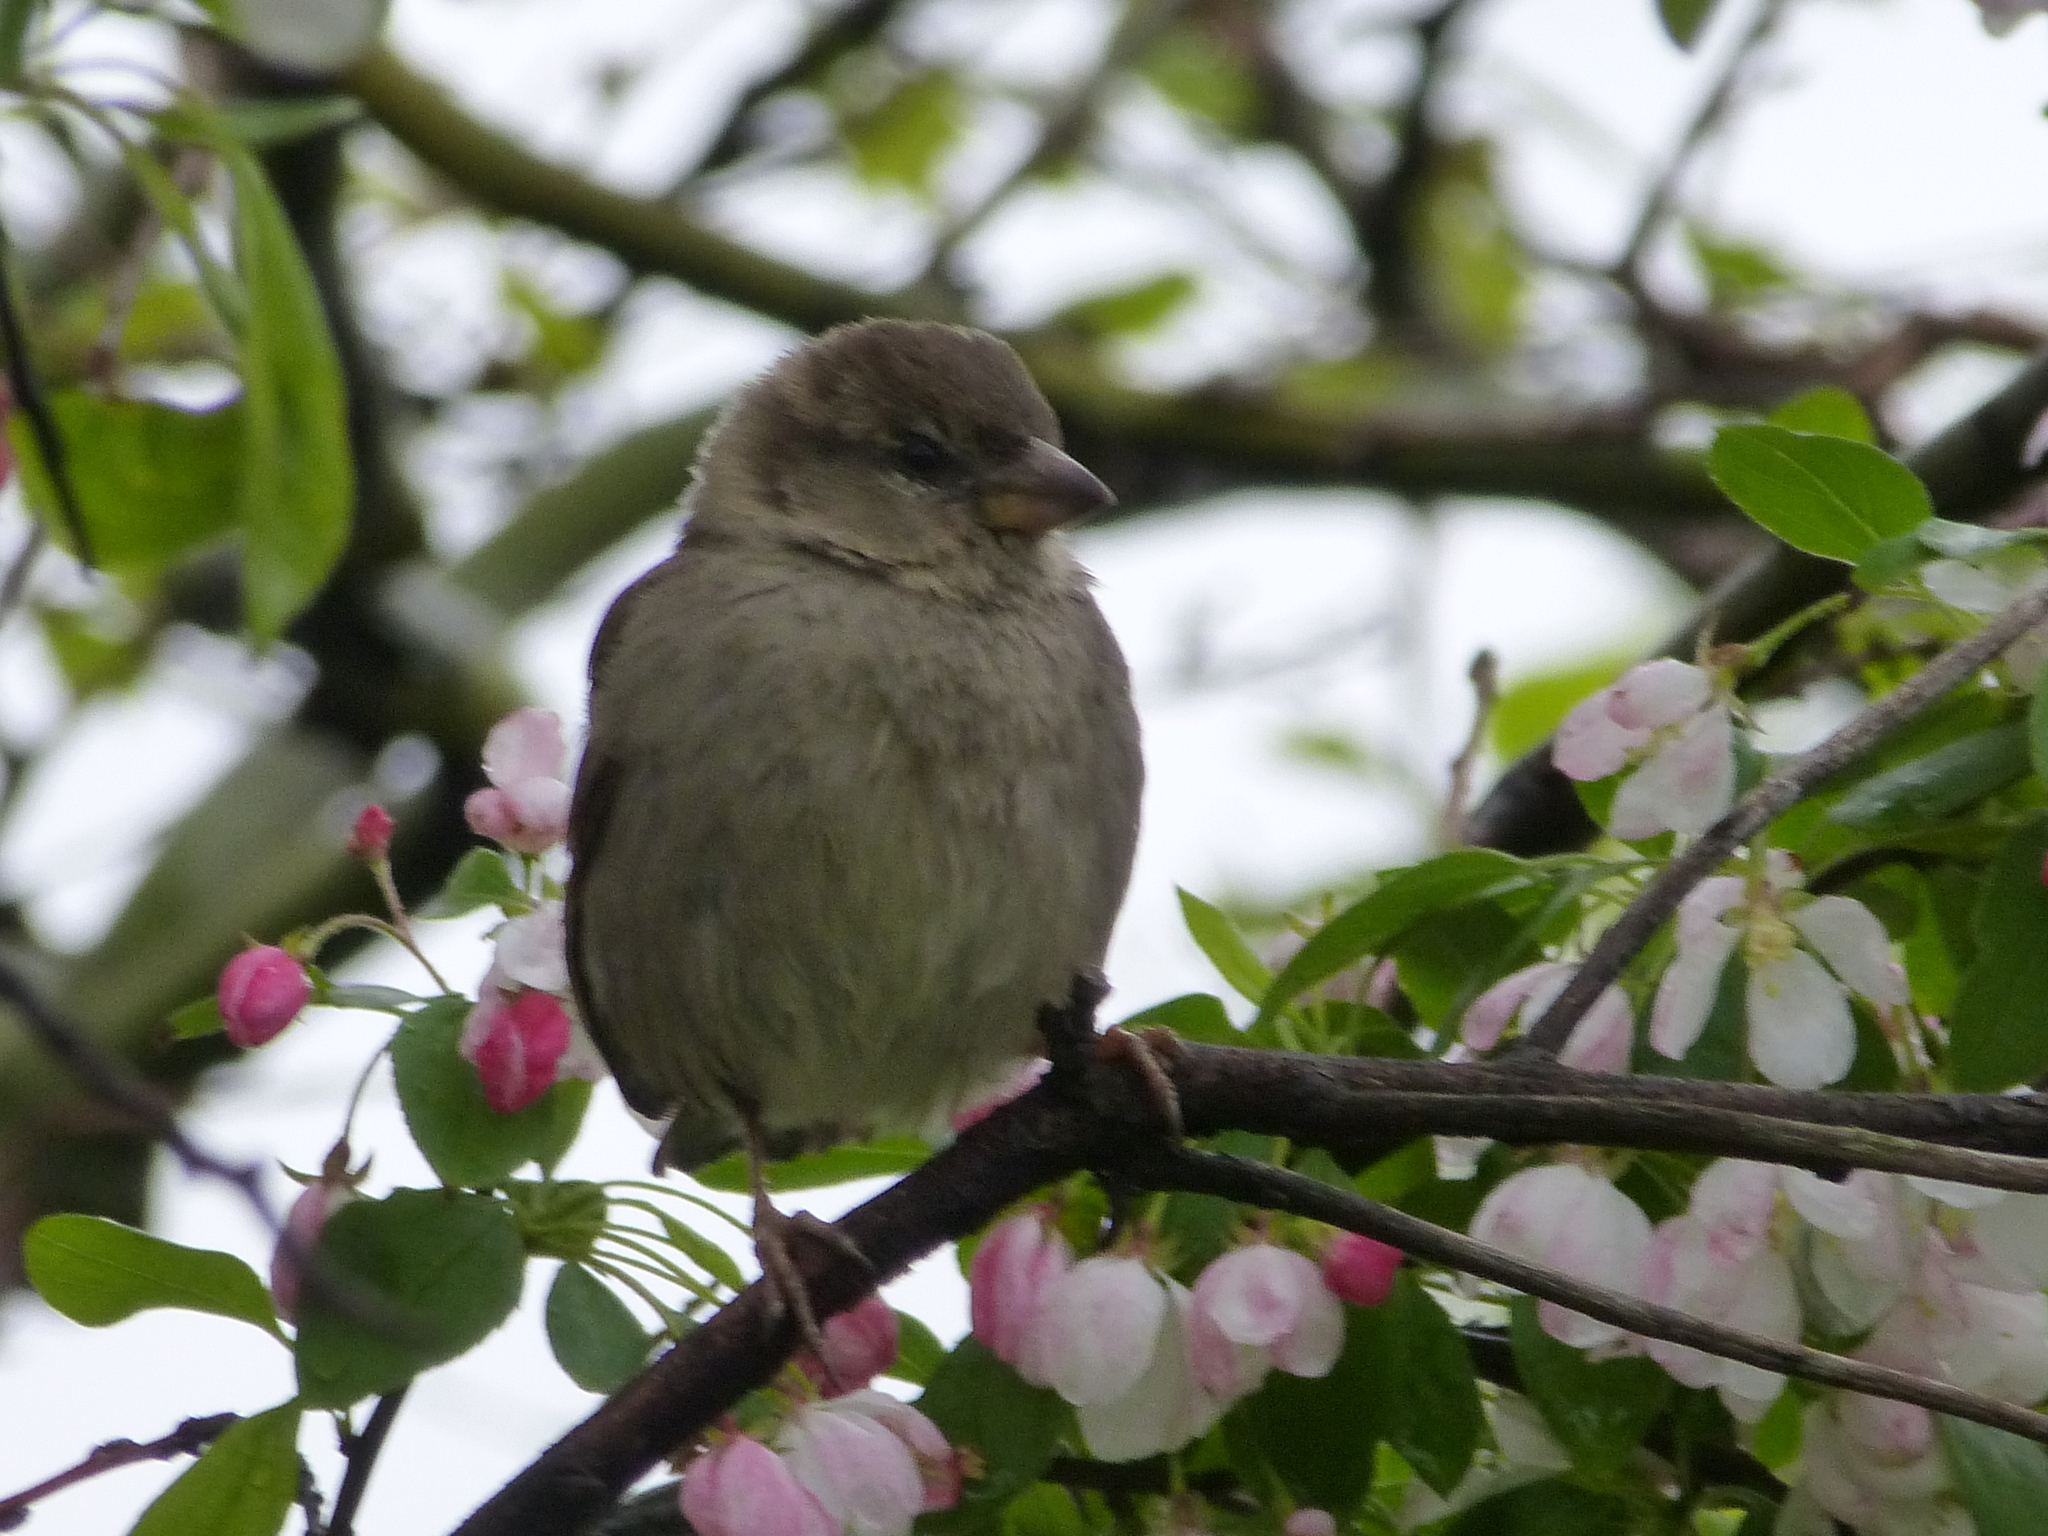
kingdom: Animalia
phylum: Chordata
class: Aves
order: Passeriformes
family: Passeridae
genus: Passer
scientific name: Passer domesticus
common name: House sparrow
